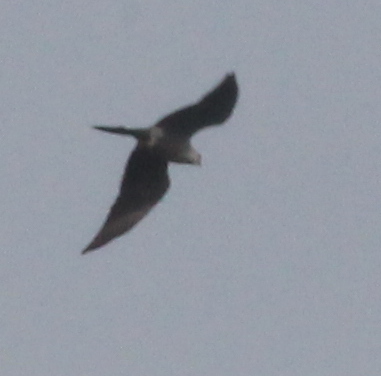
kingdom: Animalia
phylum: Chordata
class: Aves
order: Accipitriformes
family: Accipitridae
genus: Ictinia
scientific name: Ictinia mississippiensis
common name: Mississippi kite
